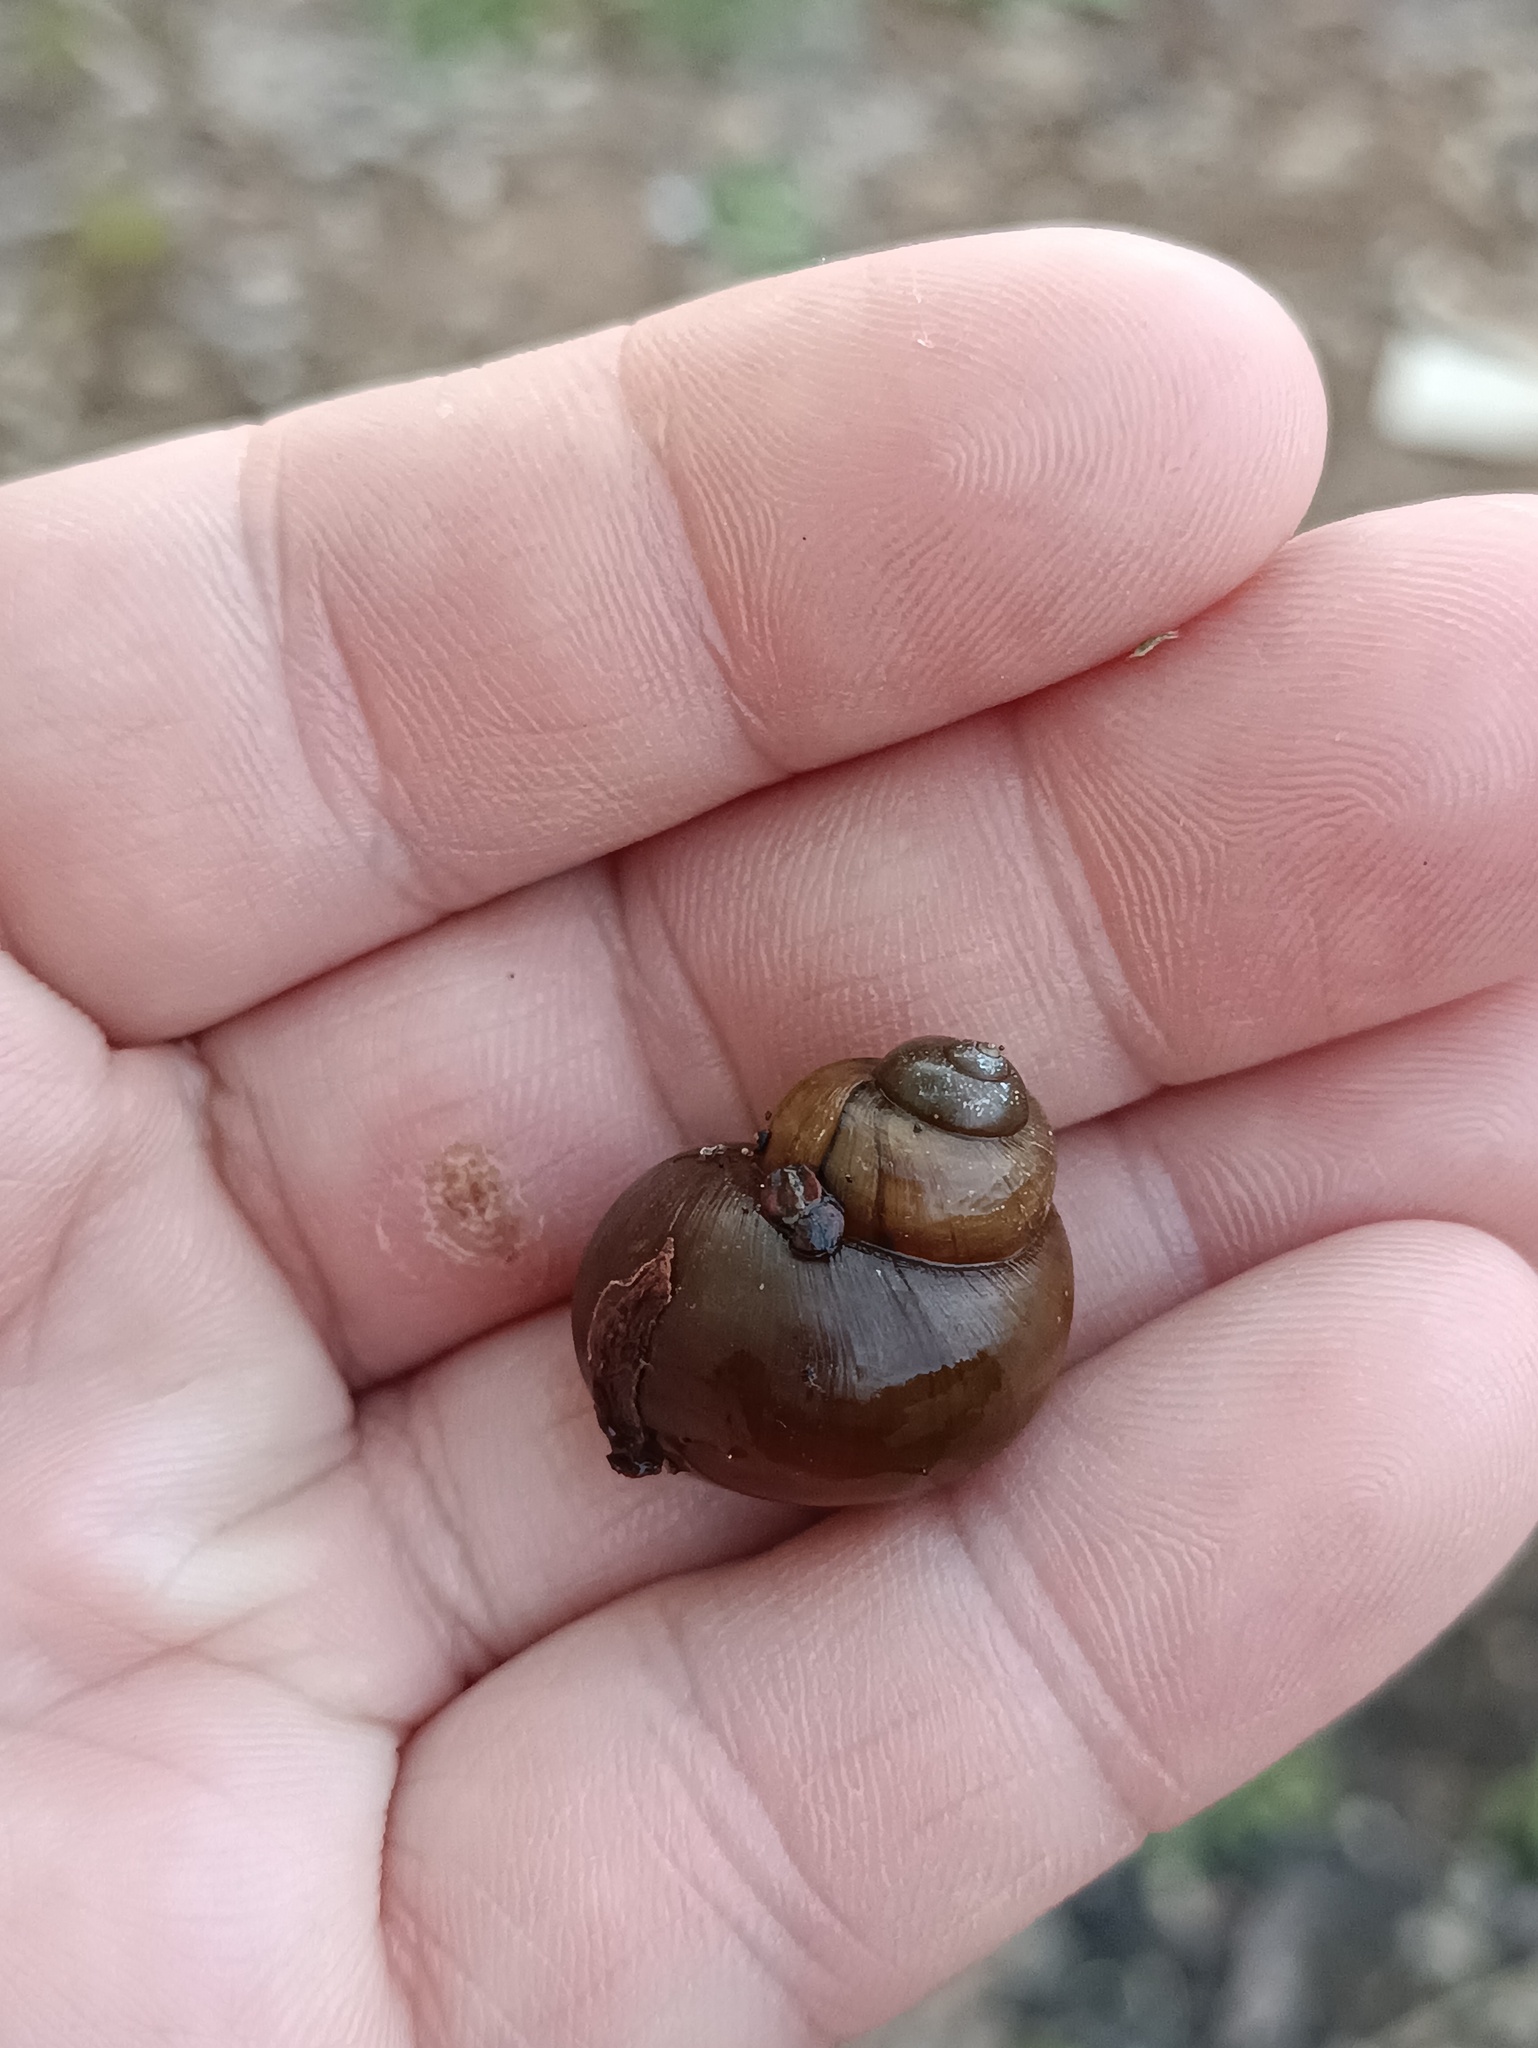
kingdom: Animalia
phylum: Mollusca
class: Gastropoda
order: Architaenioglossa
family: Viviparidae
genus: Viviparus
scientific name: Viviparus viviparus
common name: River snail
